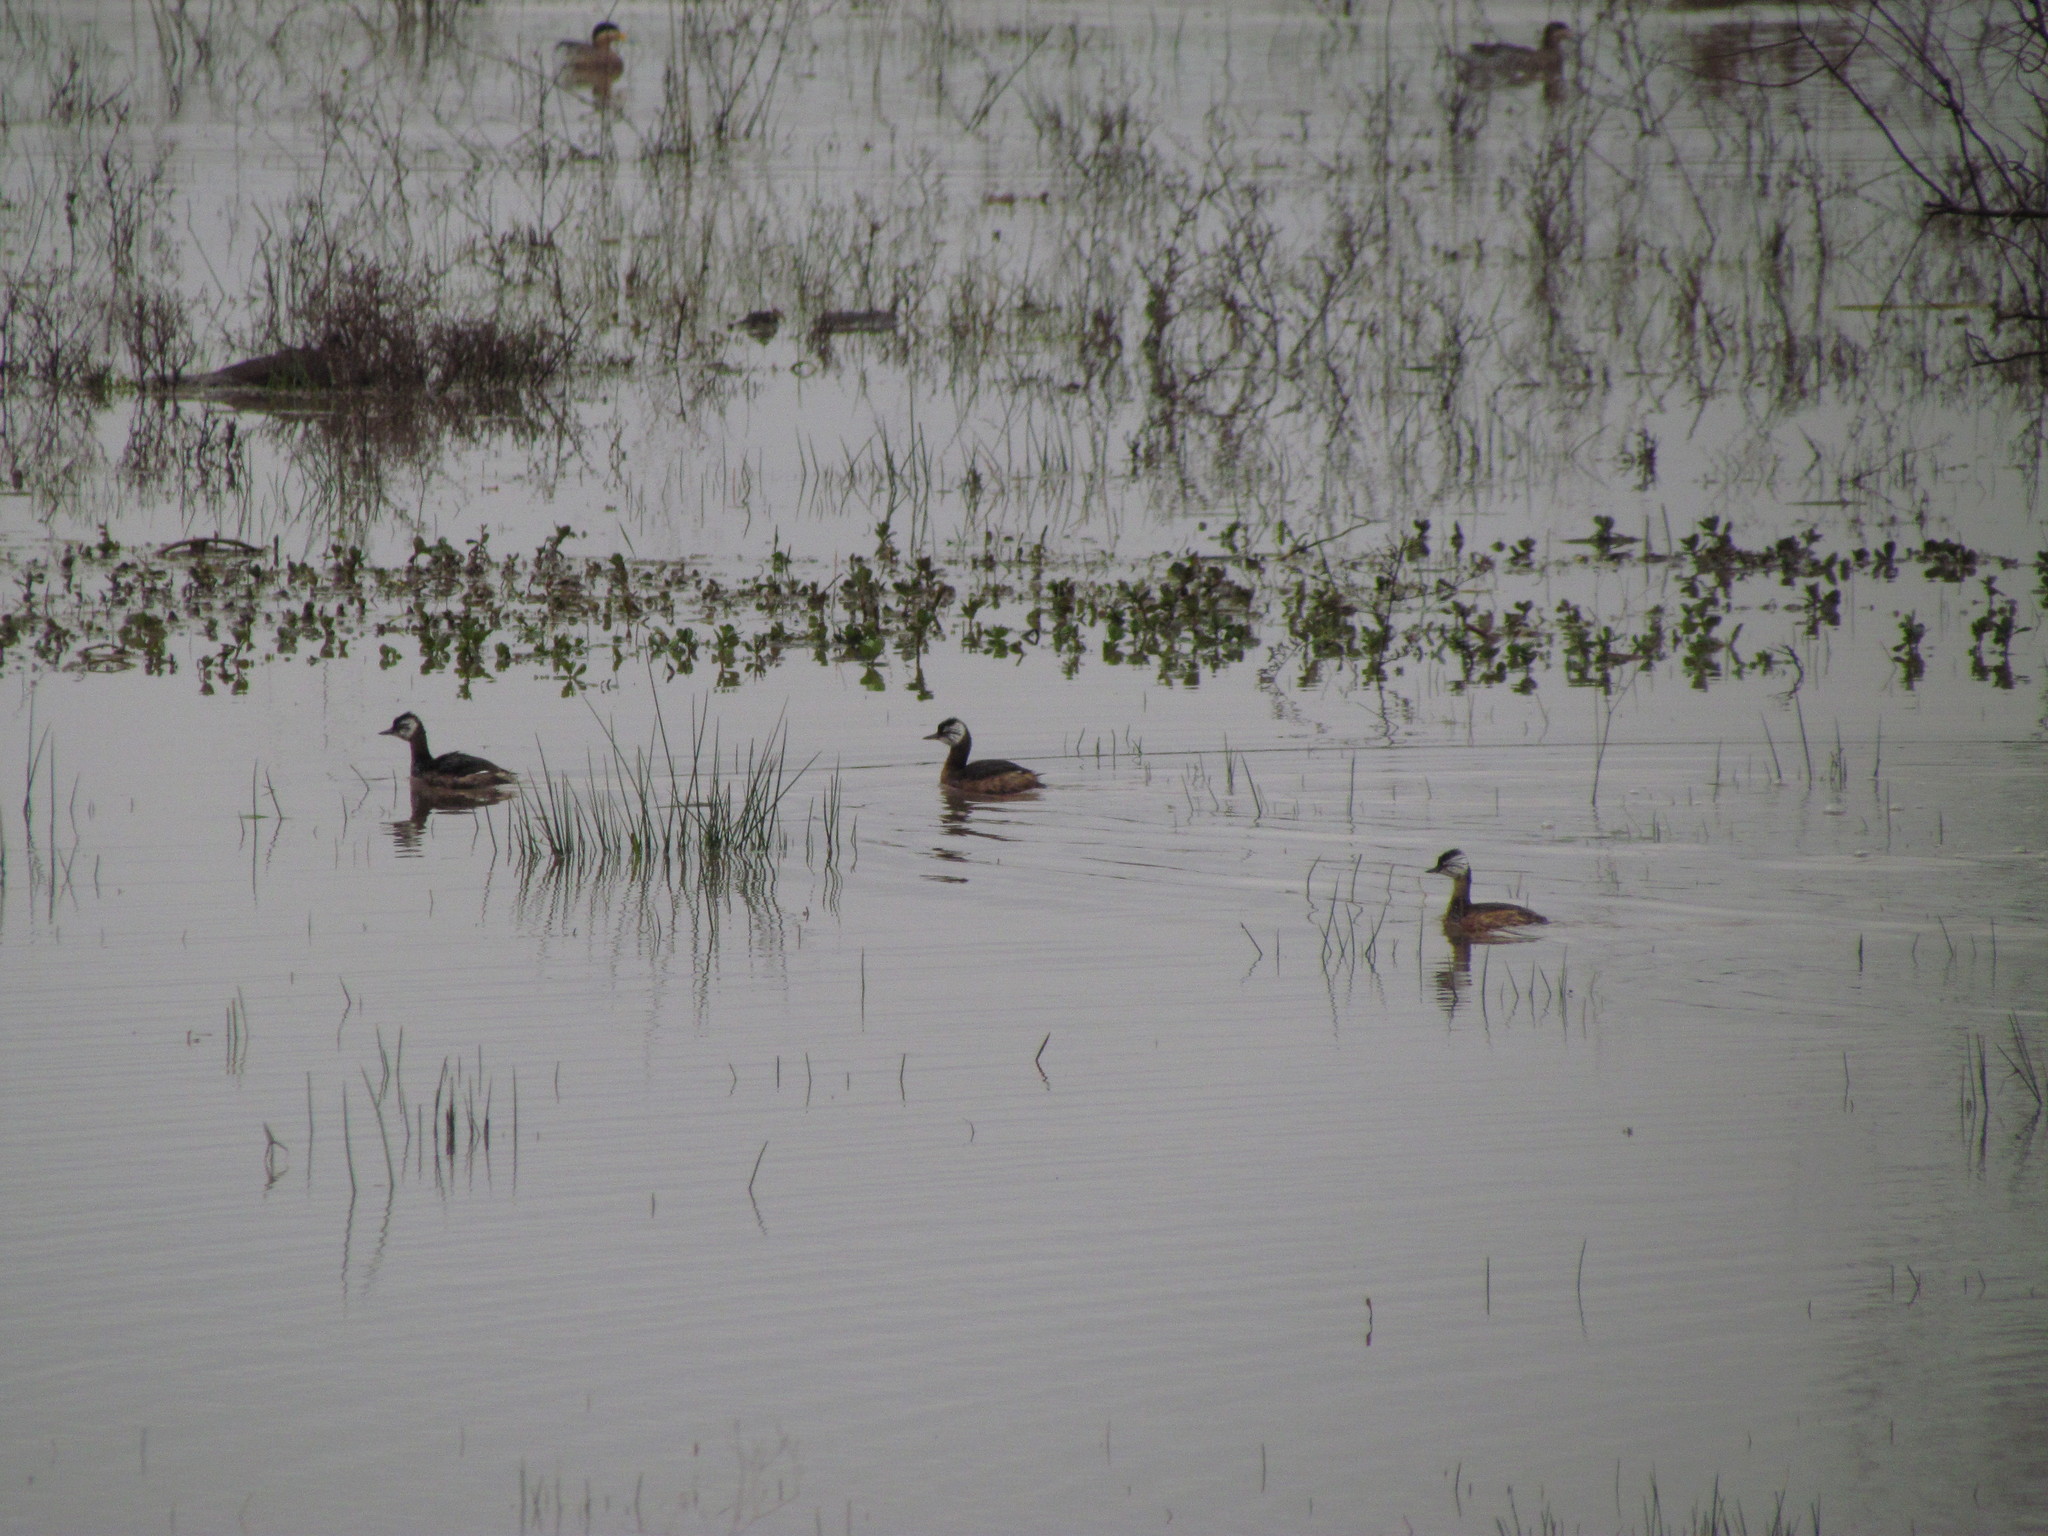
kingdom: Animalia
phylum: Chordata
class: Aves
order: Podicipediformes
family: Podicipedidae
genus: Rollandia
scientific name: Rollandia rolland
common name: White-tufted grebe
